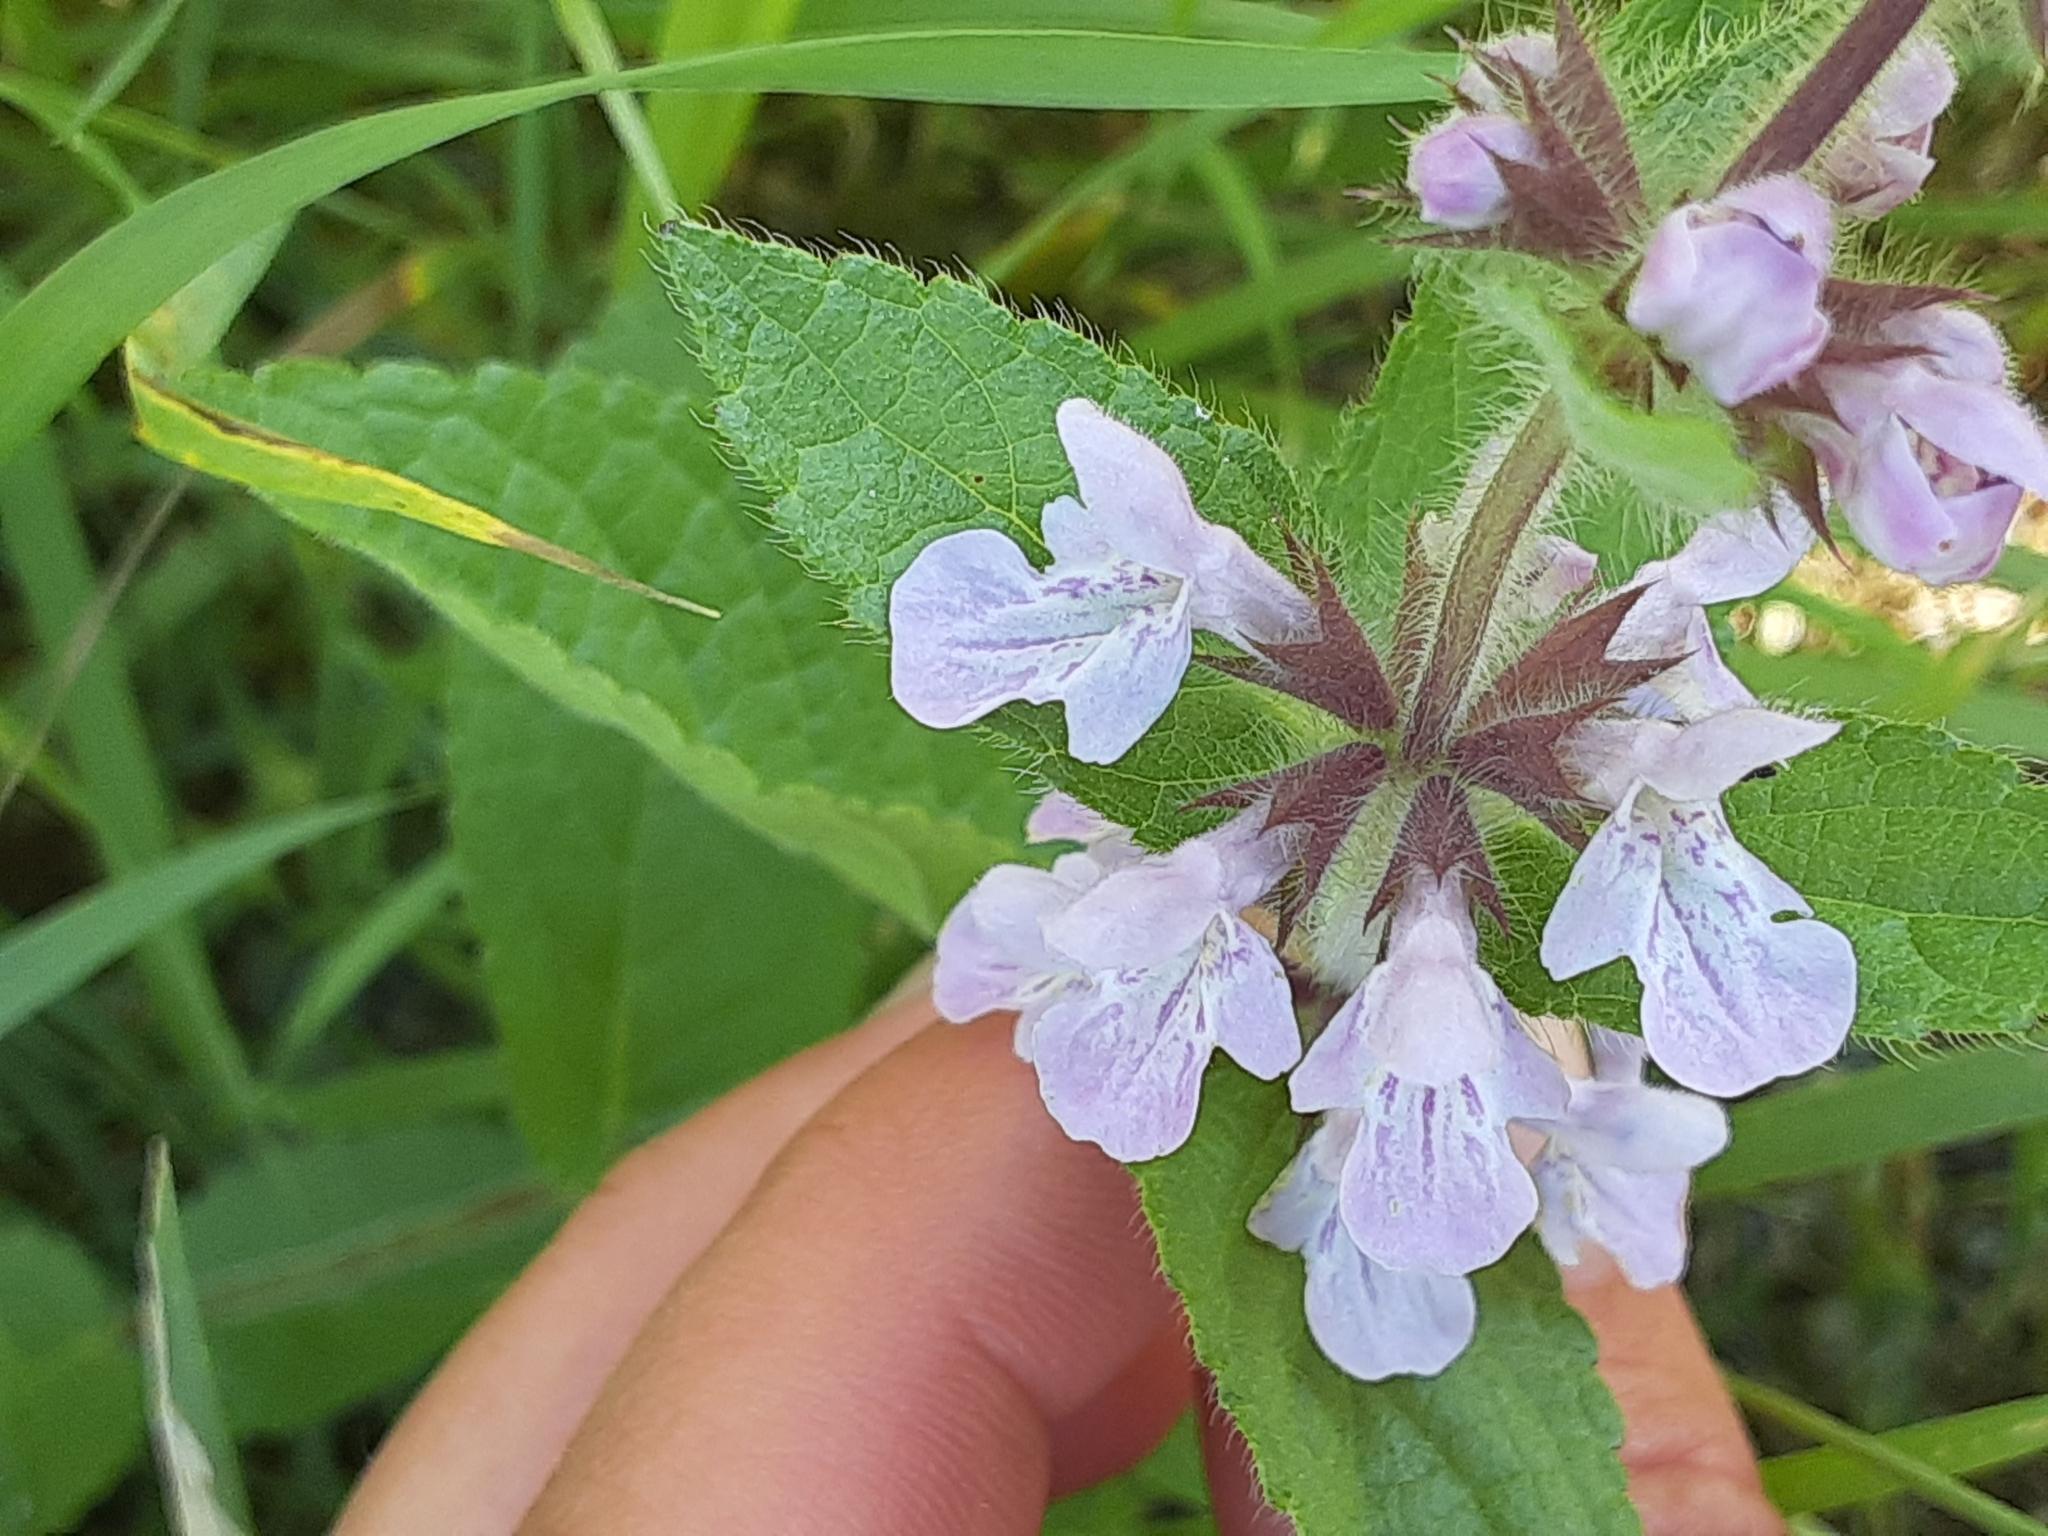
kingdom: Plantae
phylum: Tracheophyta
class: Magnoliopsida
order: Lamiales
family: Lamiaceae
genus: Stachys
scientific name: Stachys pilosa
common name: Hairy hedge-nettle
